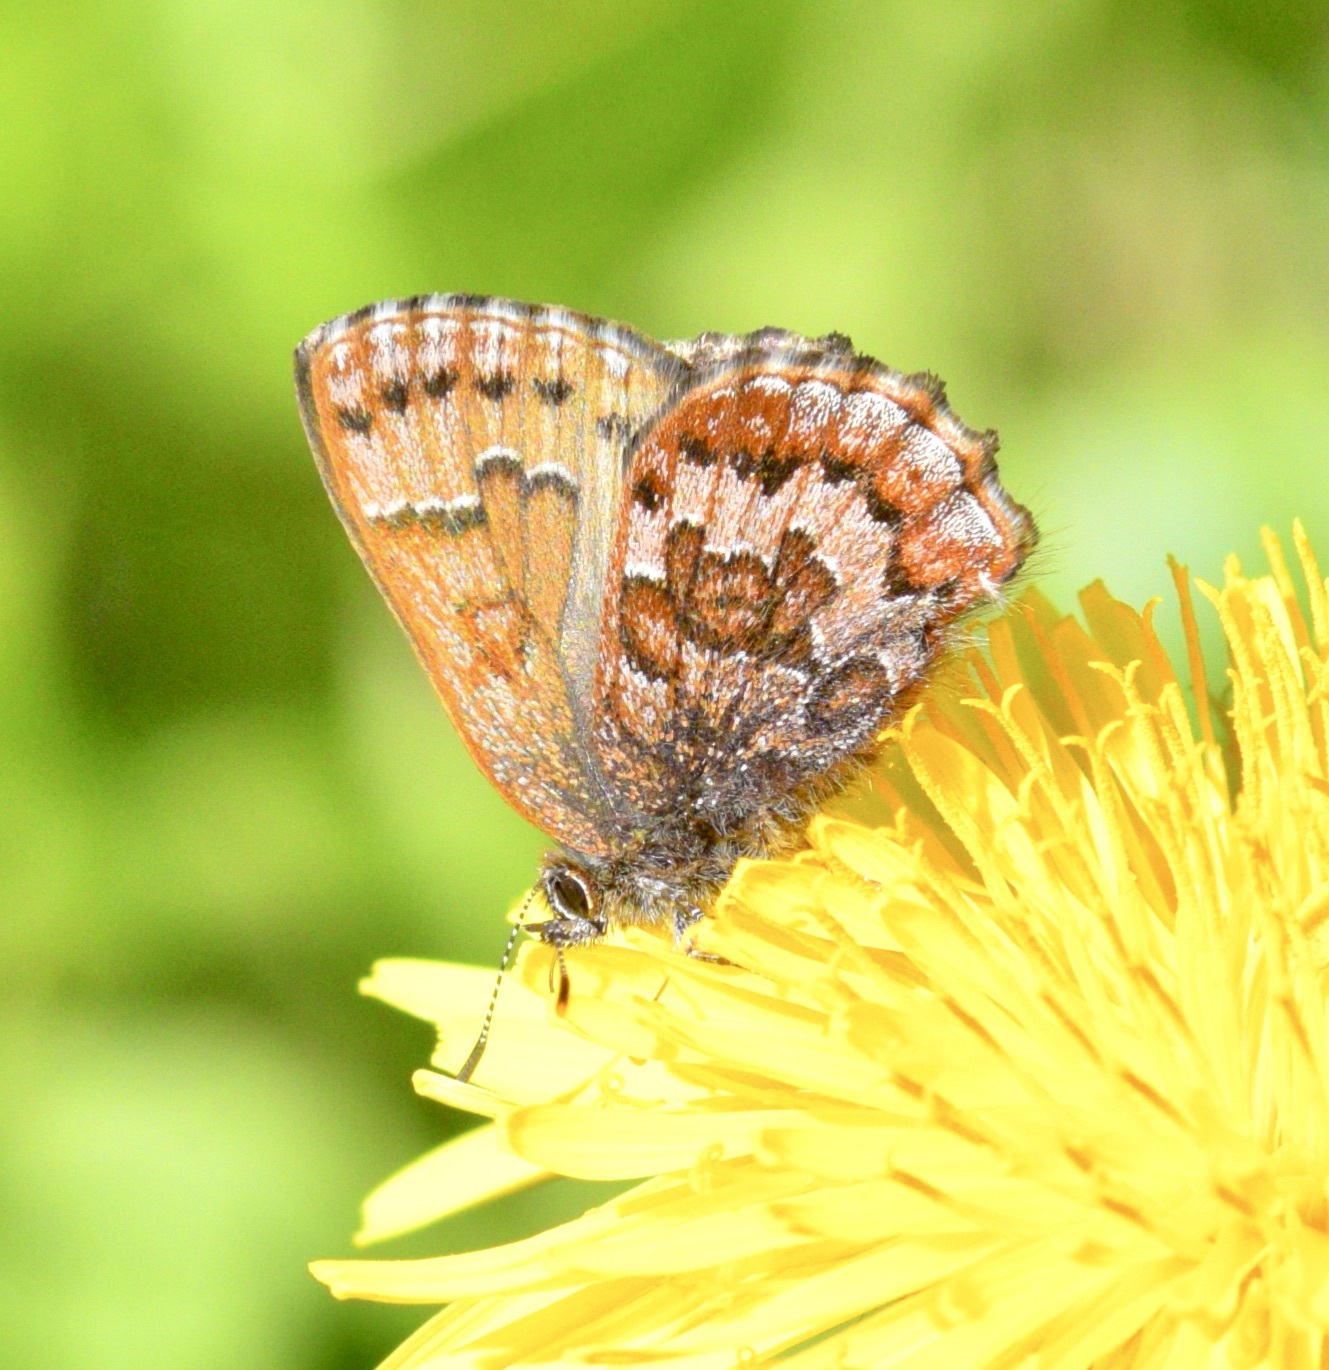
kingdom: Animalia
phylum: Arthropoda
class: Insecta
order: Lepidoptera
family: Lycaenidae
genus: Incisalia
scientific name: Incisalia niphon
